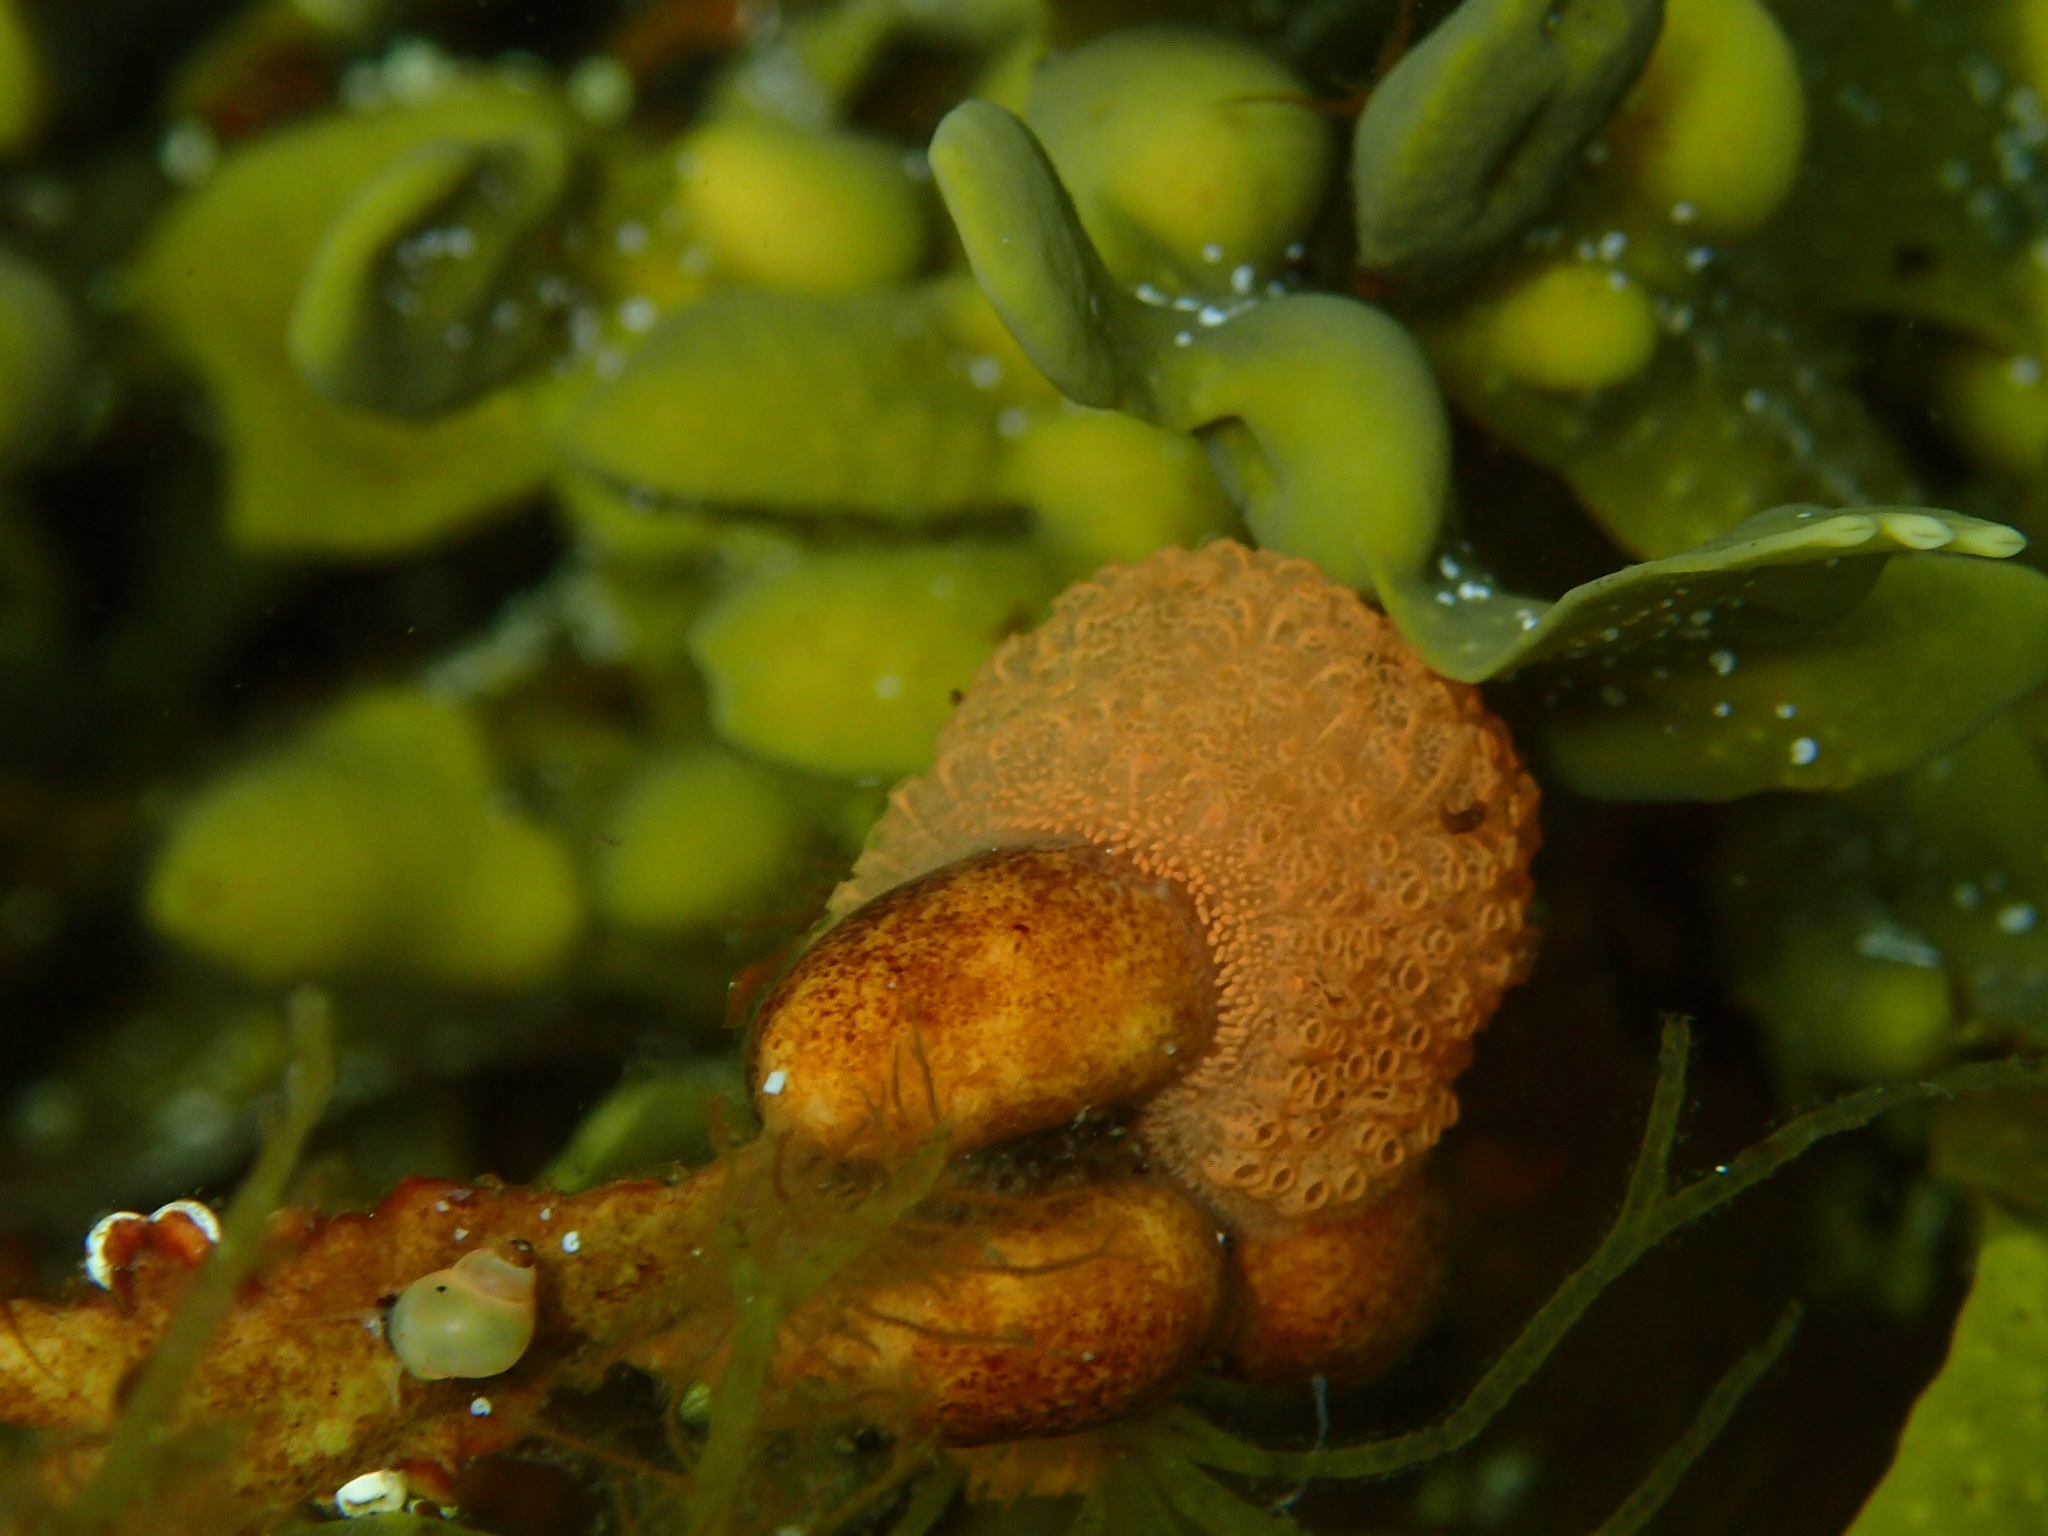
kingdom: Animalia
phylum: Chordata
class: Ascidiacea
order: Stolidobranchia
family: Styelidae
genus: Botrylloides
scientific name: Botrylloides violaceus
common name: Colonial sea squirt
